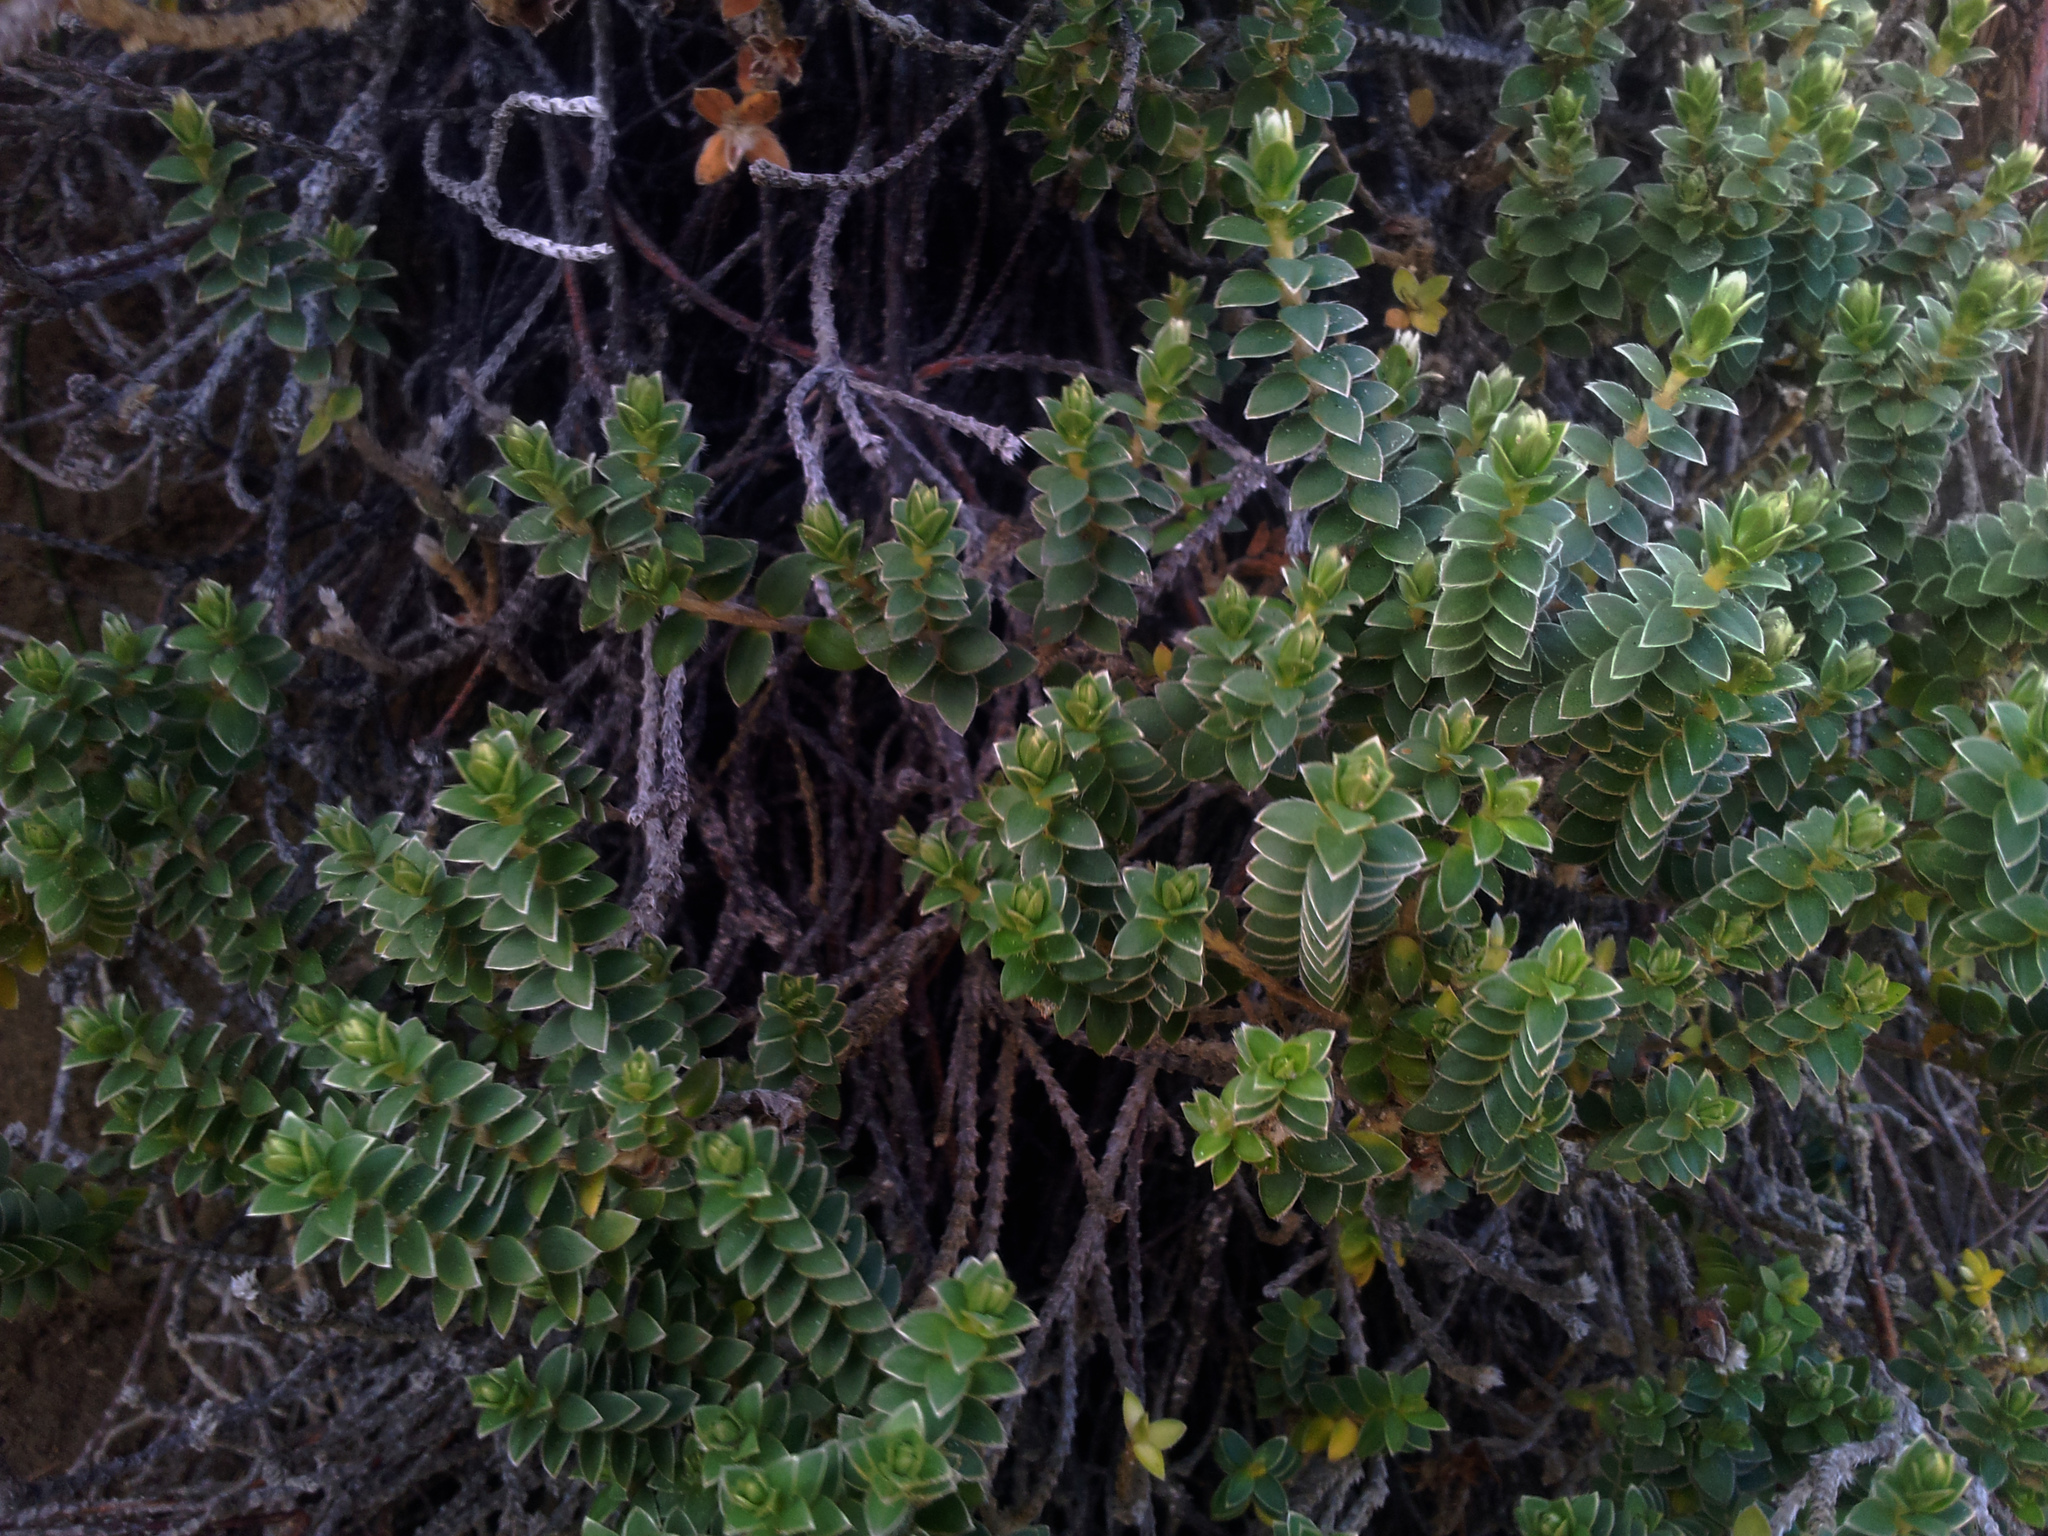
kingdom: Plantae
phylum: Tracheophyta
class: Magnoliopsida
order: Malvales
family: Thymelaeaceae
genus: Pimelea
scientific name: Pimelea villosa
